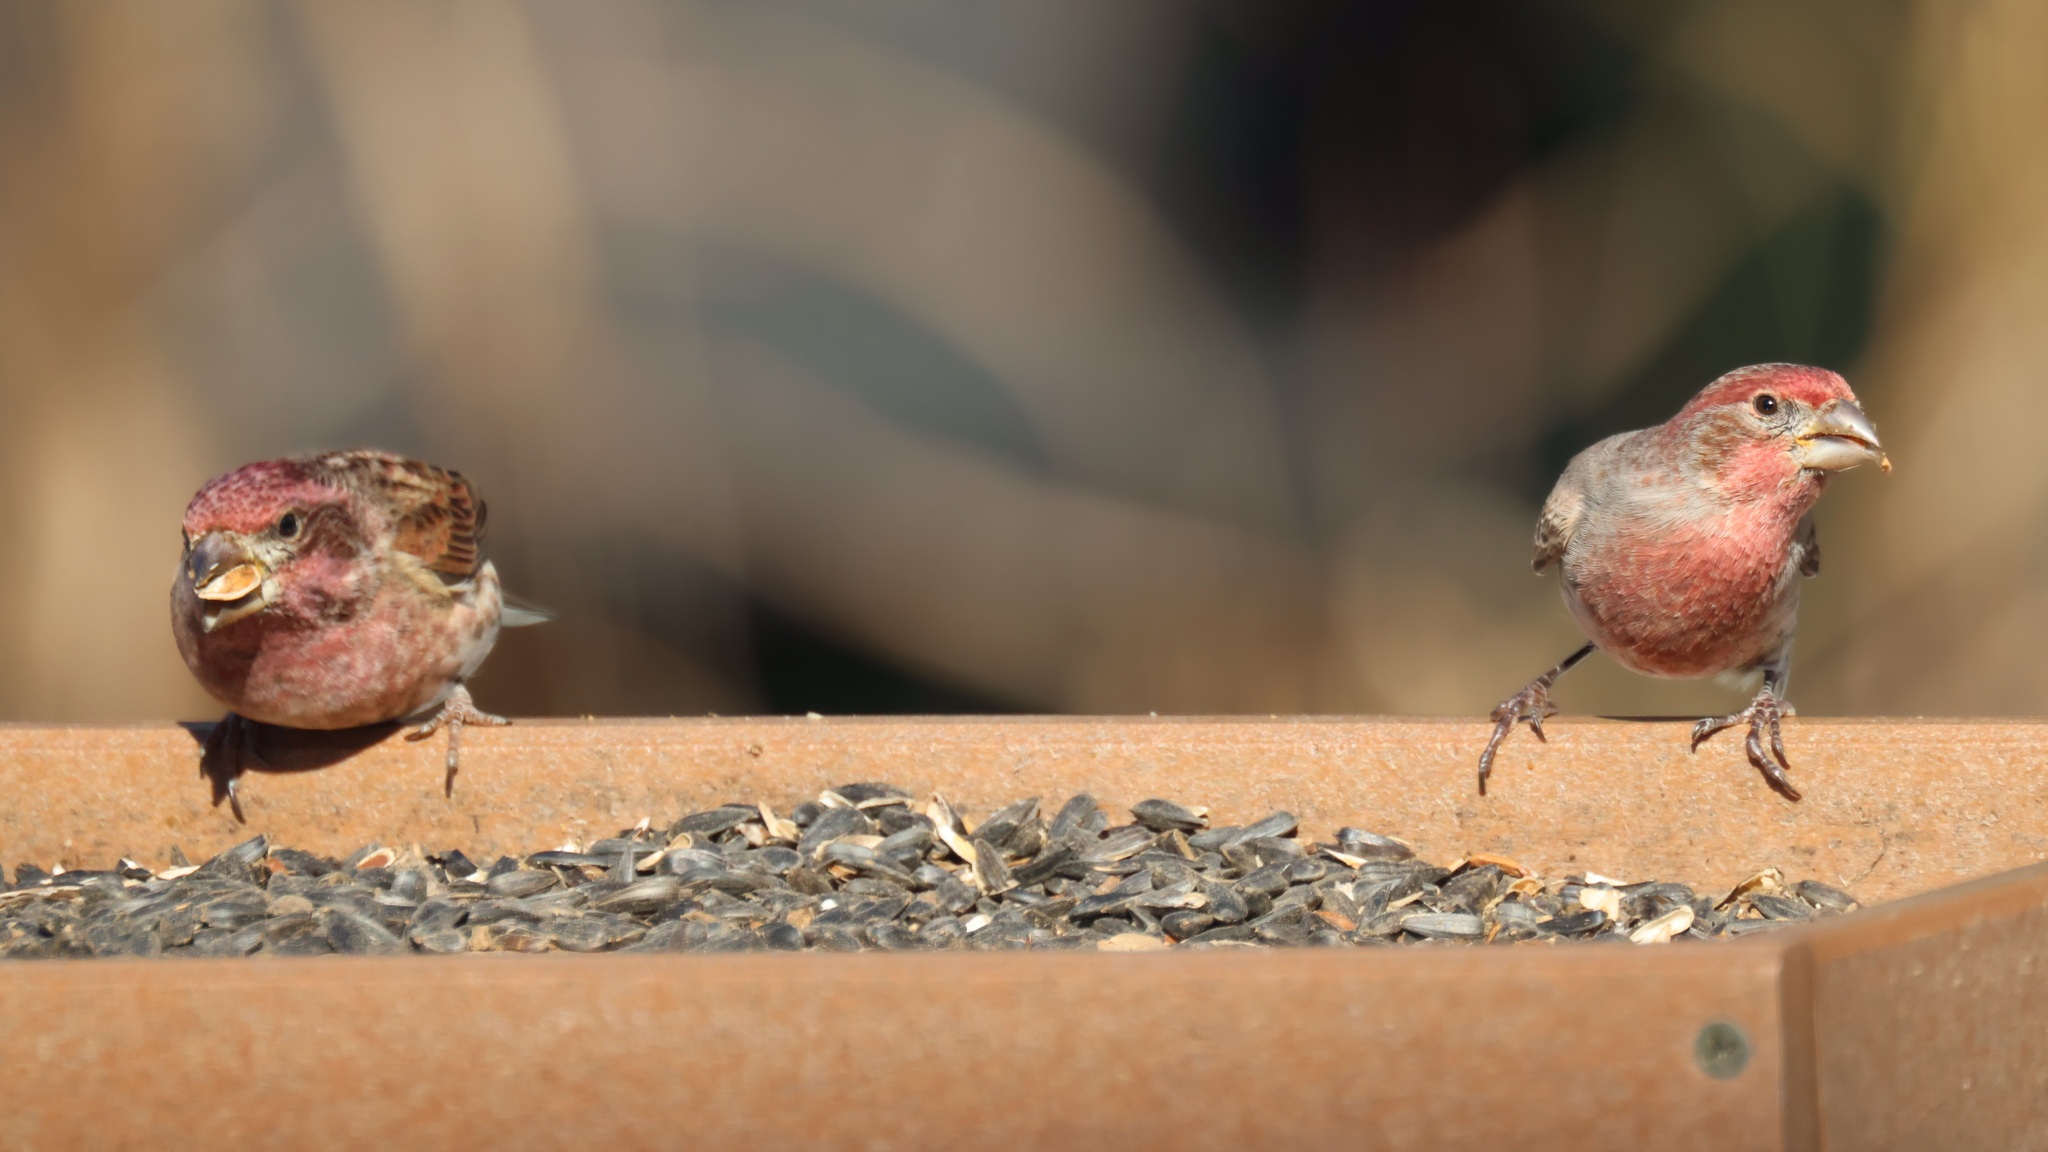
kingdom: Animalia
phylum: Chordata
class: Aves
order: Passeriformes
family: Fringillidae
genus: Haemorhous
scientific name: Haemorhous mexicanus
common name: House finch
